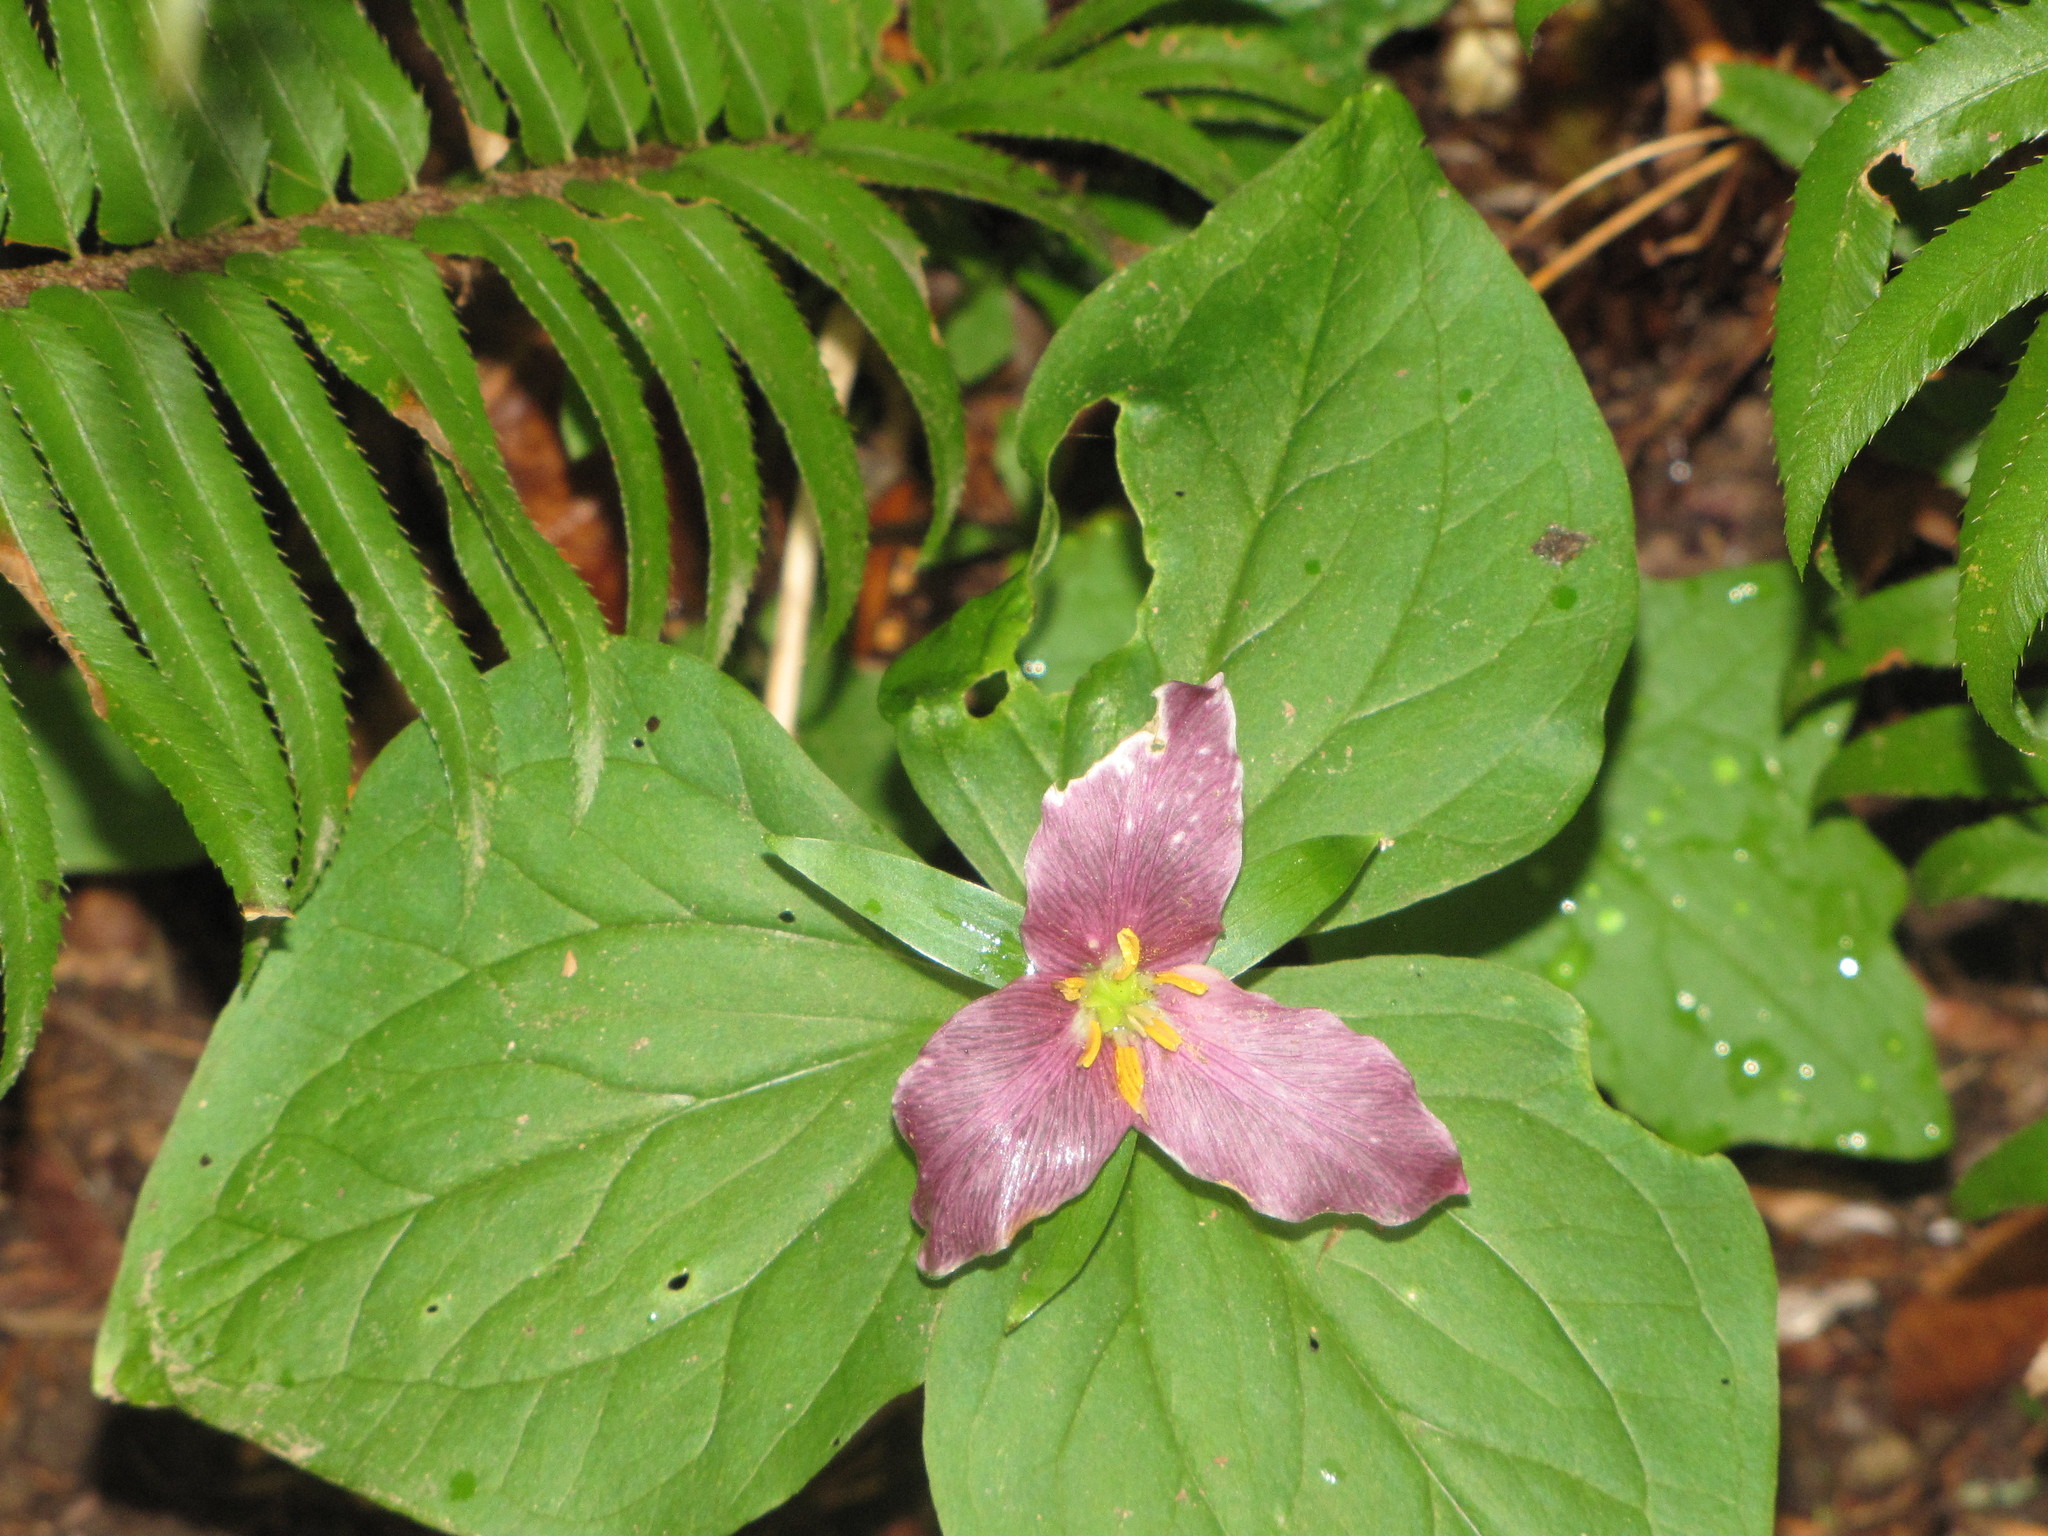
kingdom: Plantae
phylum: Tracheophyta
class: Liliopsida
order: Liliales
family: Melanthiaceae
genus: Trillium
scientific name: Trillium ovatum
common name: Pacific trillium
